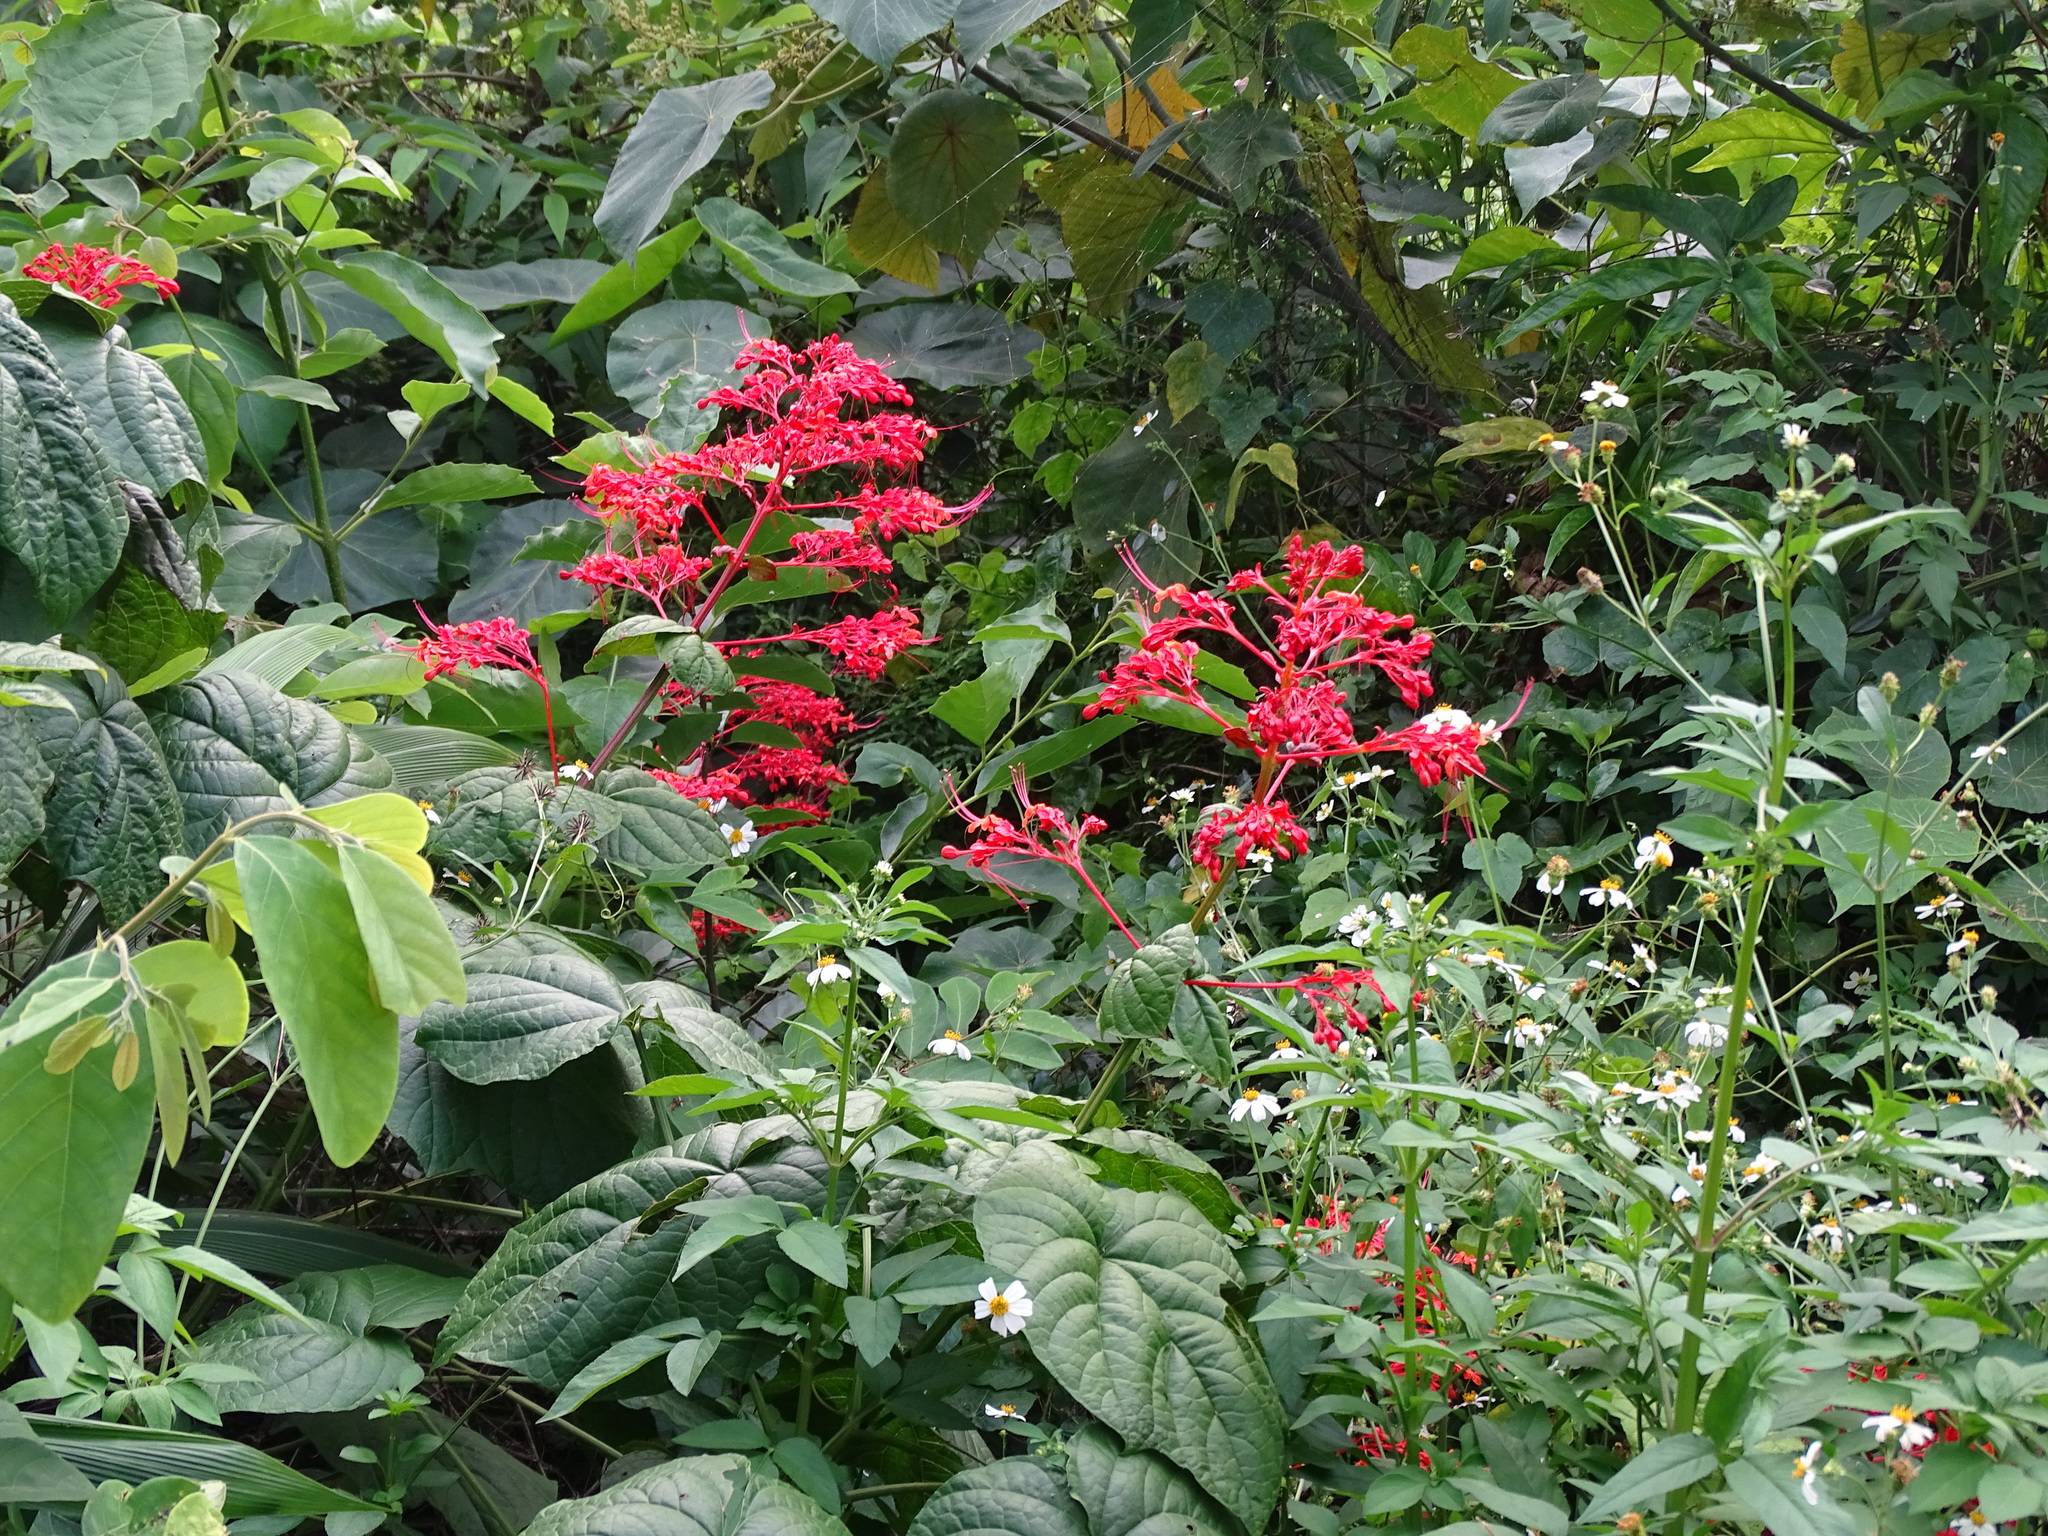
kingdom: Plantae
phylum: Tracheophyta
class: Magnoliopsida
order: Lamiales
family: Lamiaceae
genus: Clerodendrum
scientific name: Clerodendrum japonicum
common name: Japanese glorybower
